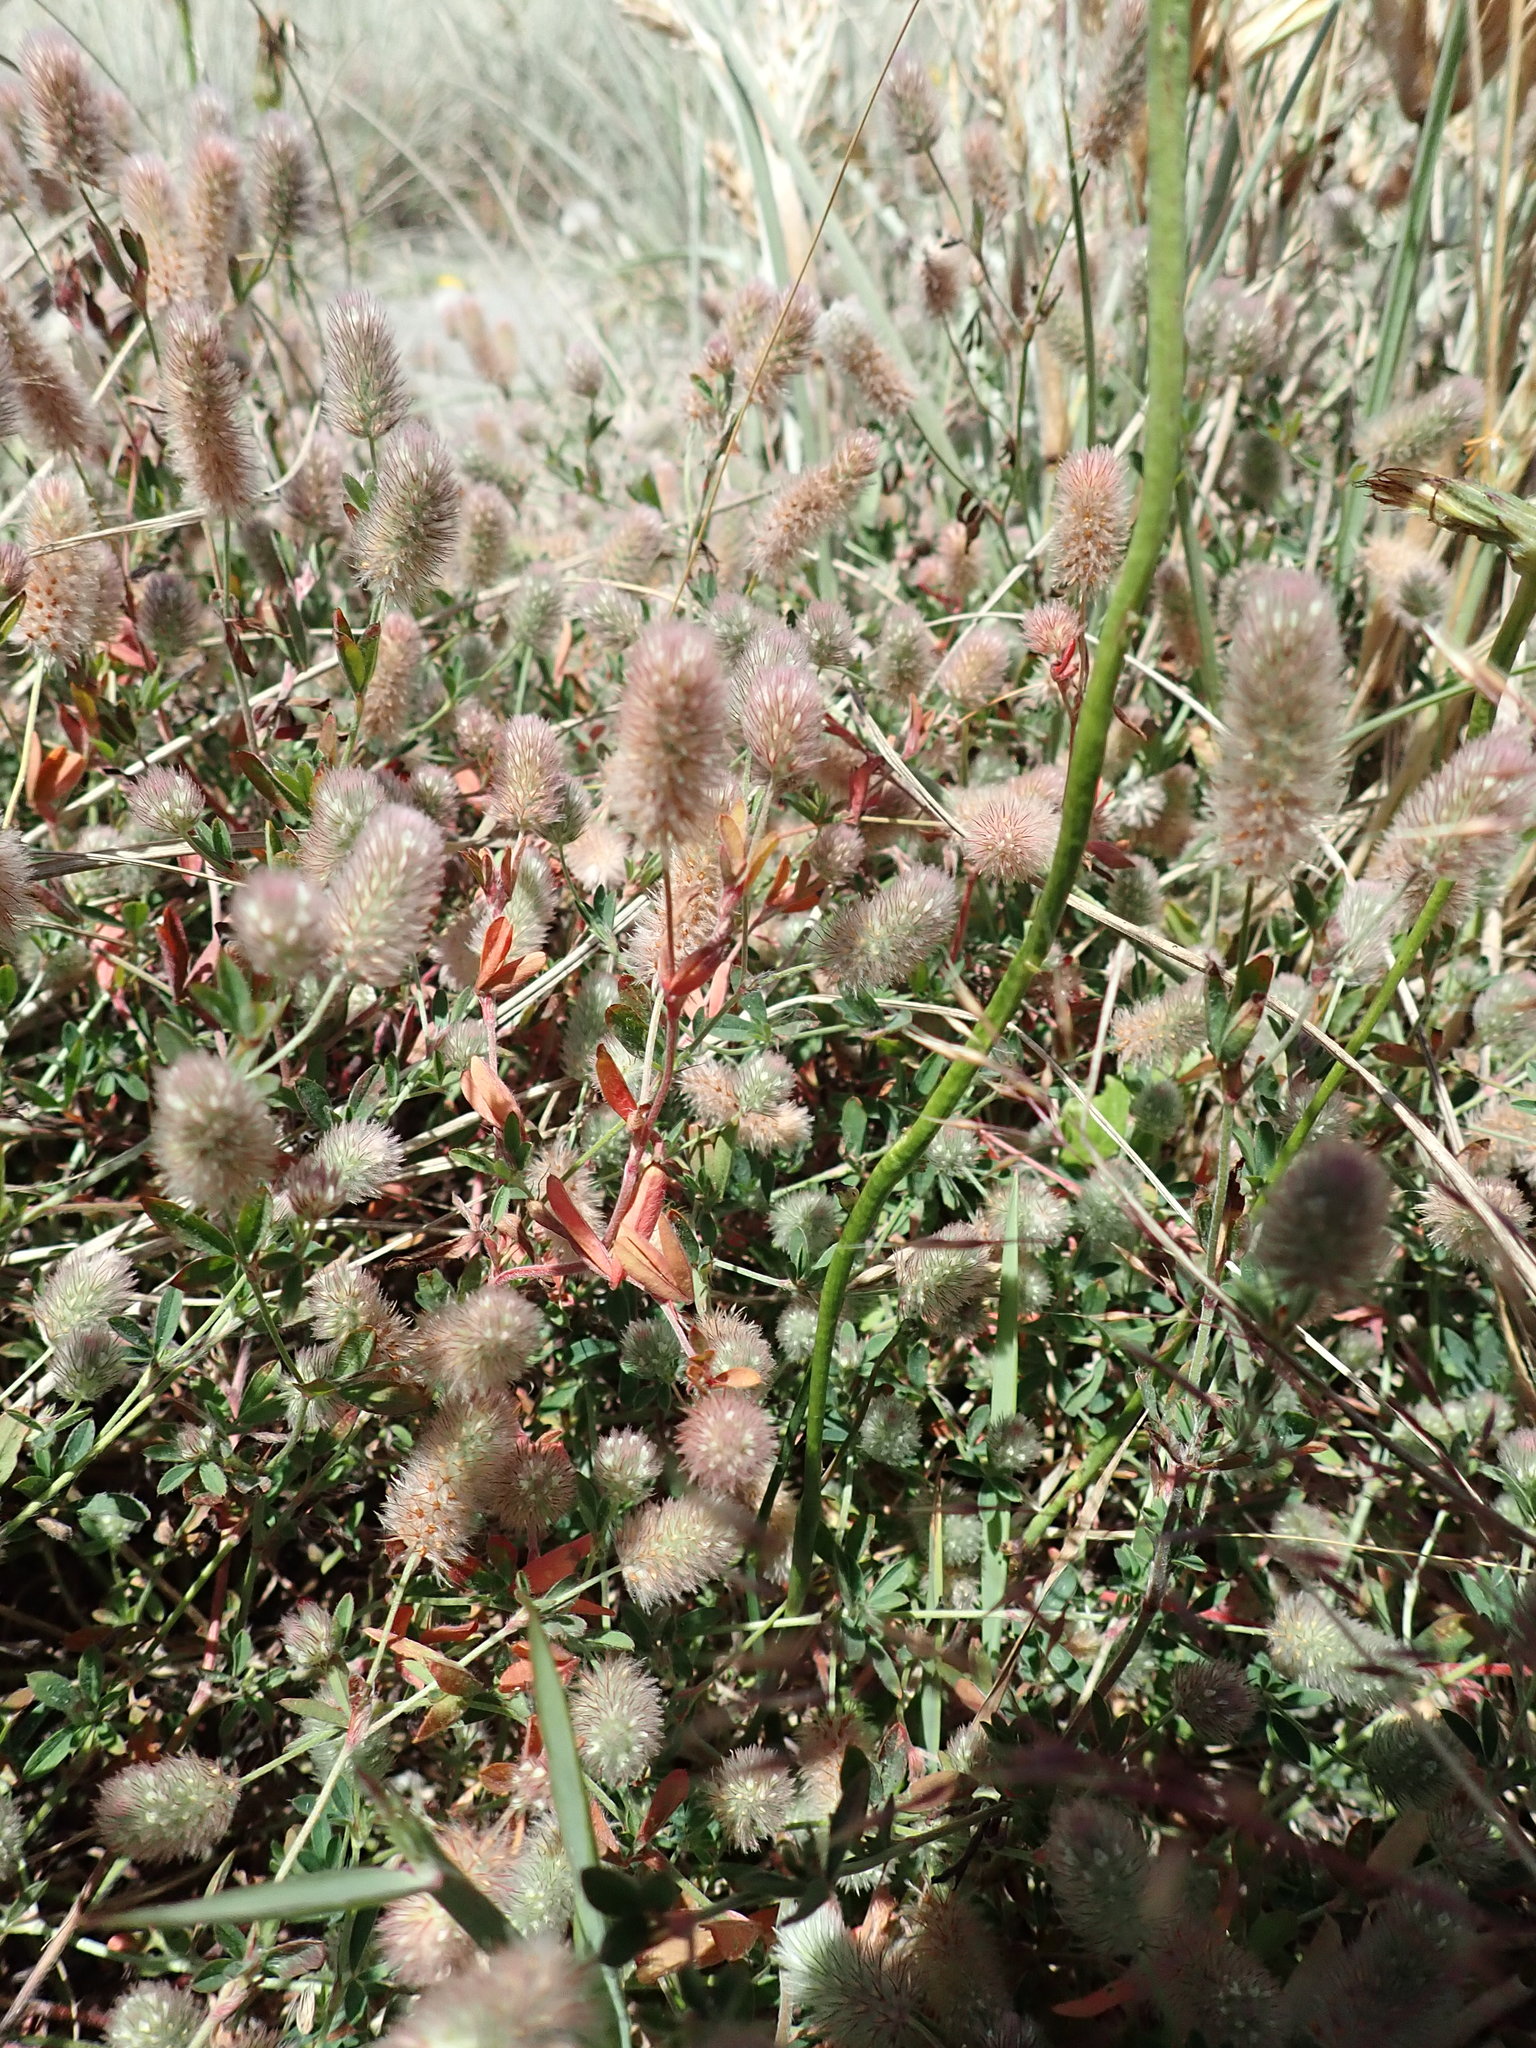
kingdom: Plantae
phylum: Tracheophyta
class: Magnoliopsida
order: Fabales
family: Fabaceae
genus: Trifolium
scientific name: Trifolium arvense
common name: Hare's-foot clover
